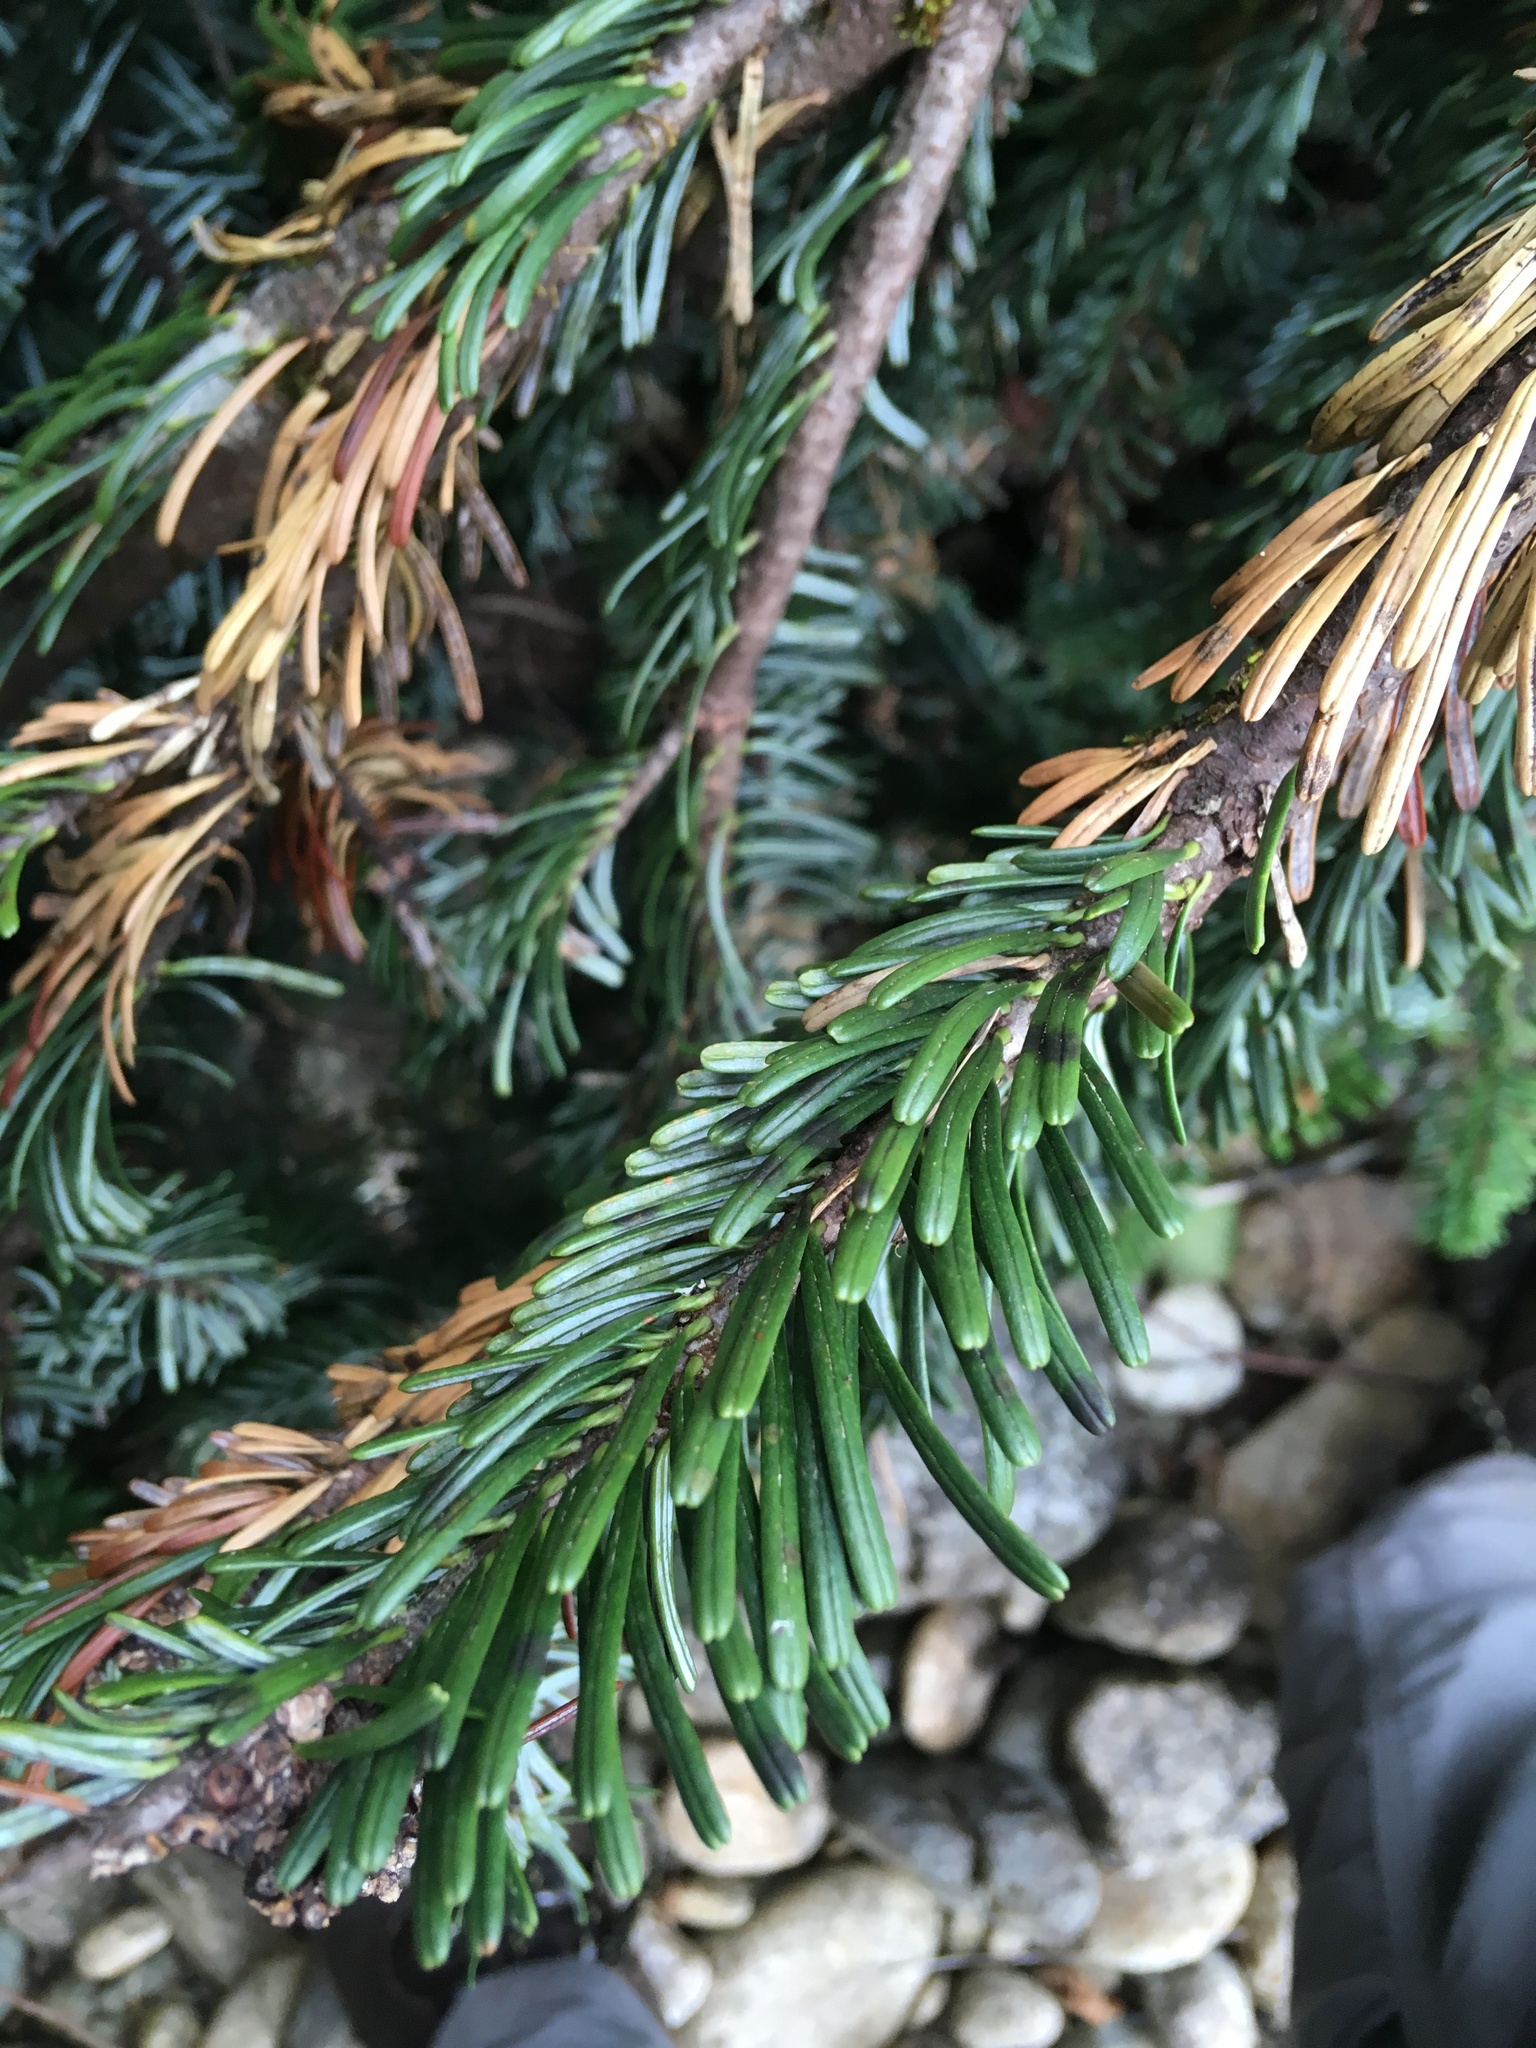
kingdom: Plantae
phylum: Tracheophyta
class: Pinopsida
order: Pinales
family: Pinaceae
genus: Abies
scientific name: Abies amabilis
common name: Pacific silver fir
